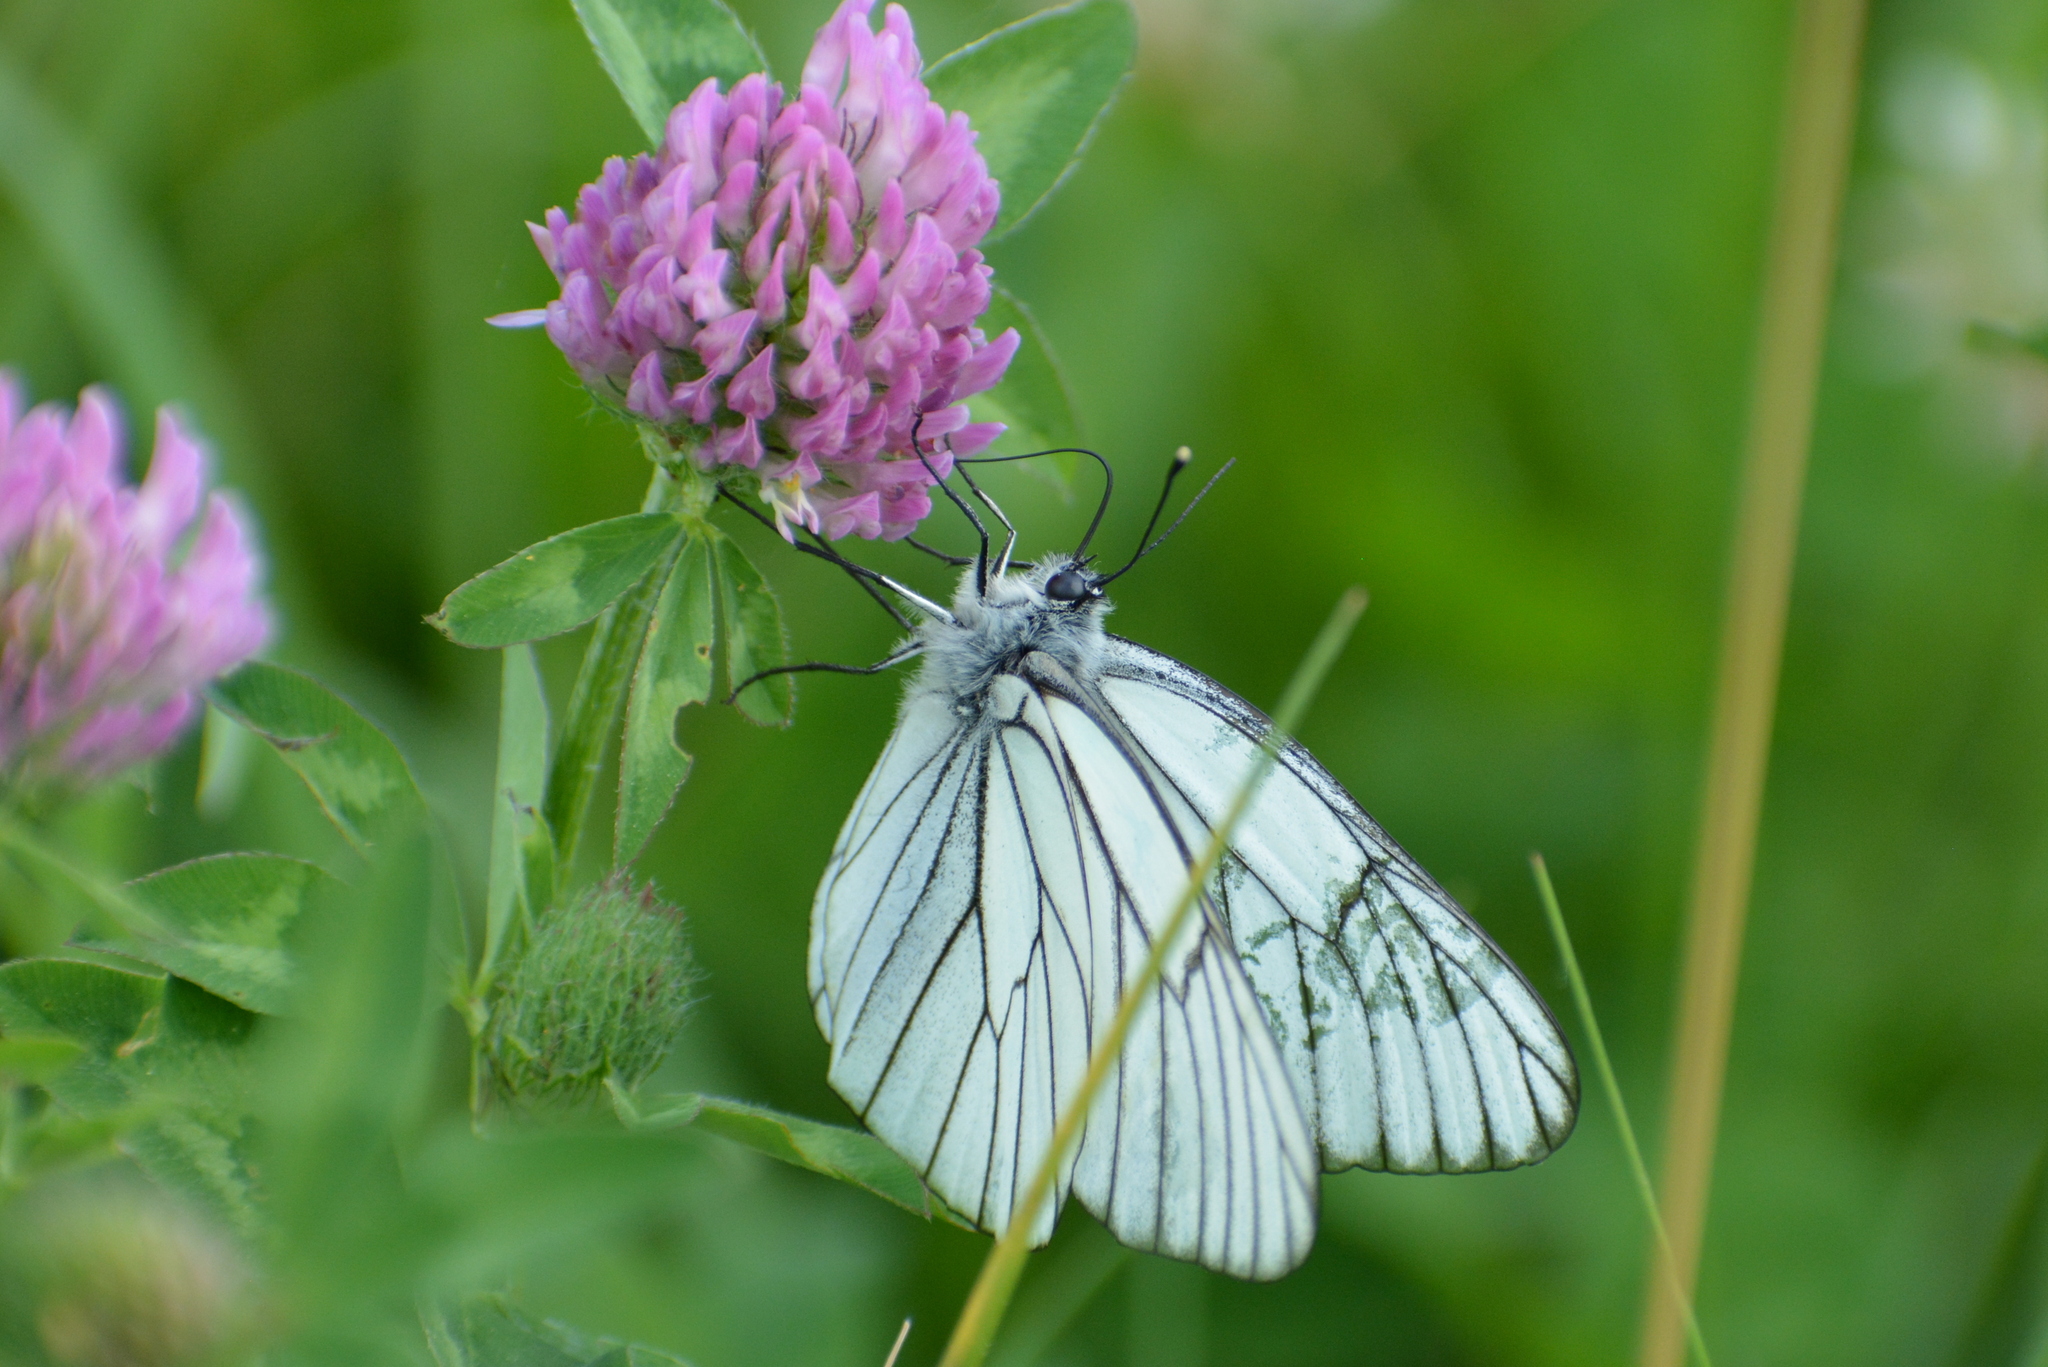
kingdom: Animalia
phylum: Arthropoda
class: Insecta
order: Lepidoptera
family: Pieridae
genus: Aporia
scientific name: Aporia crataegi
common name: Black-veined white
